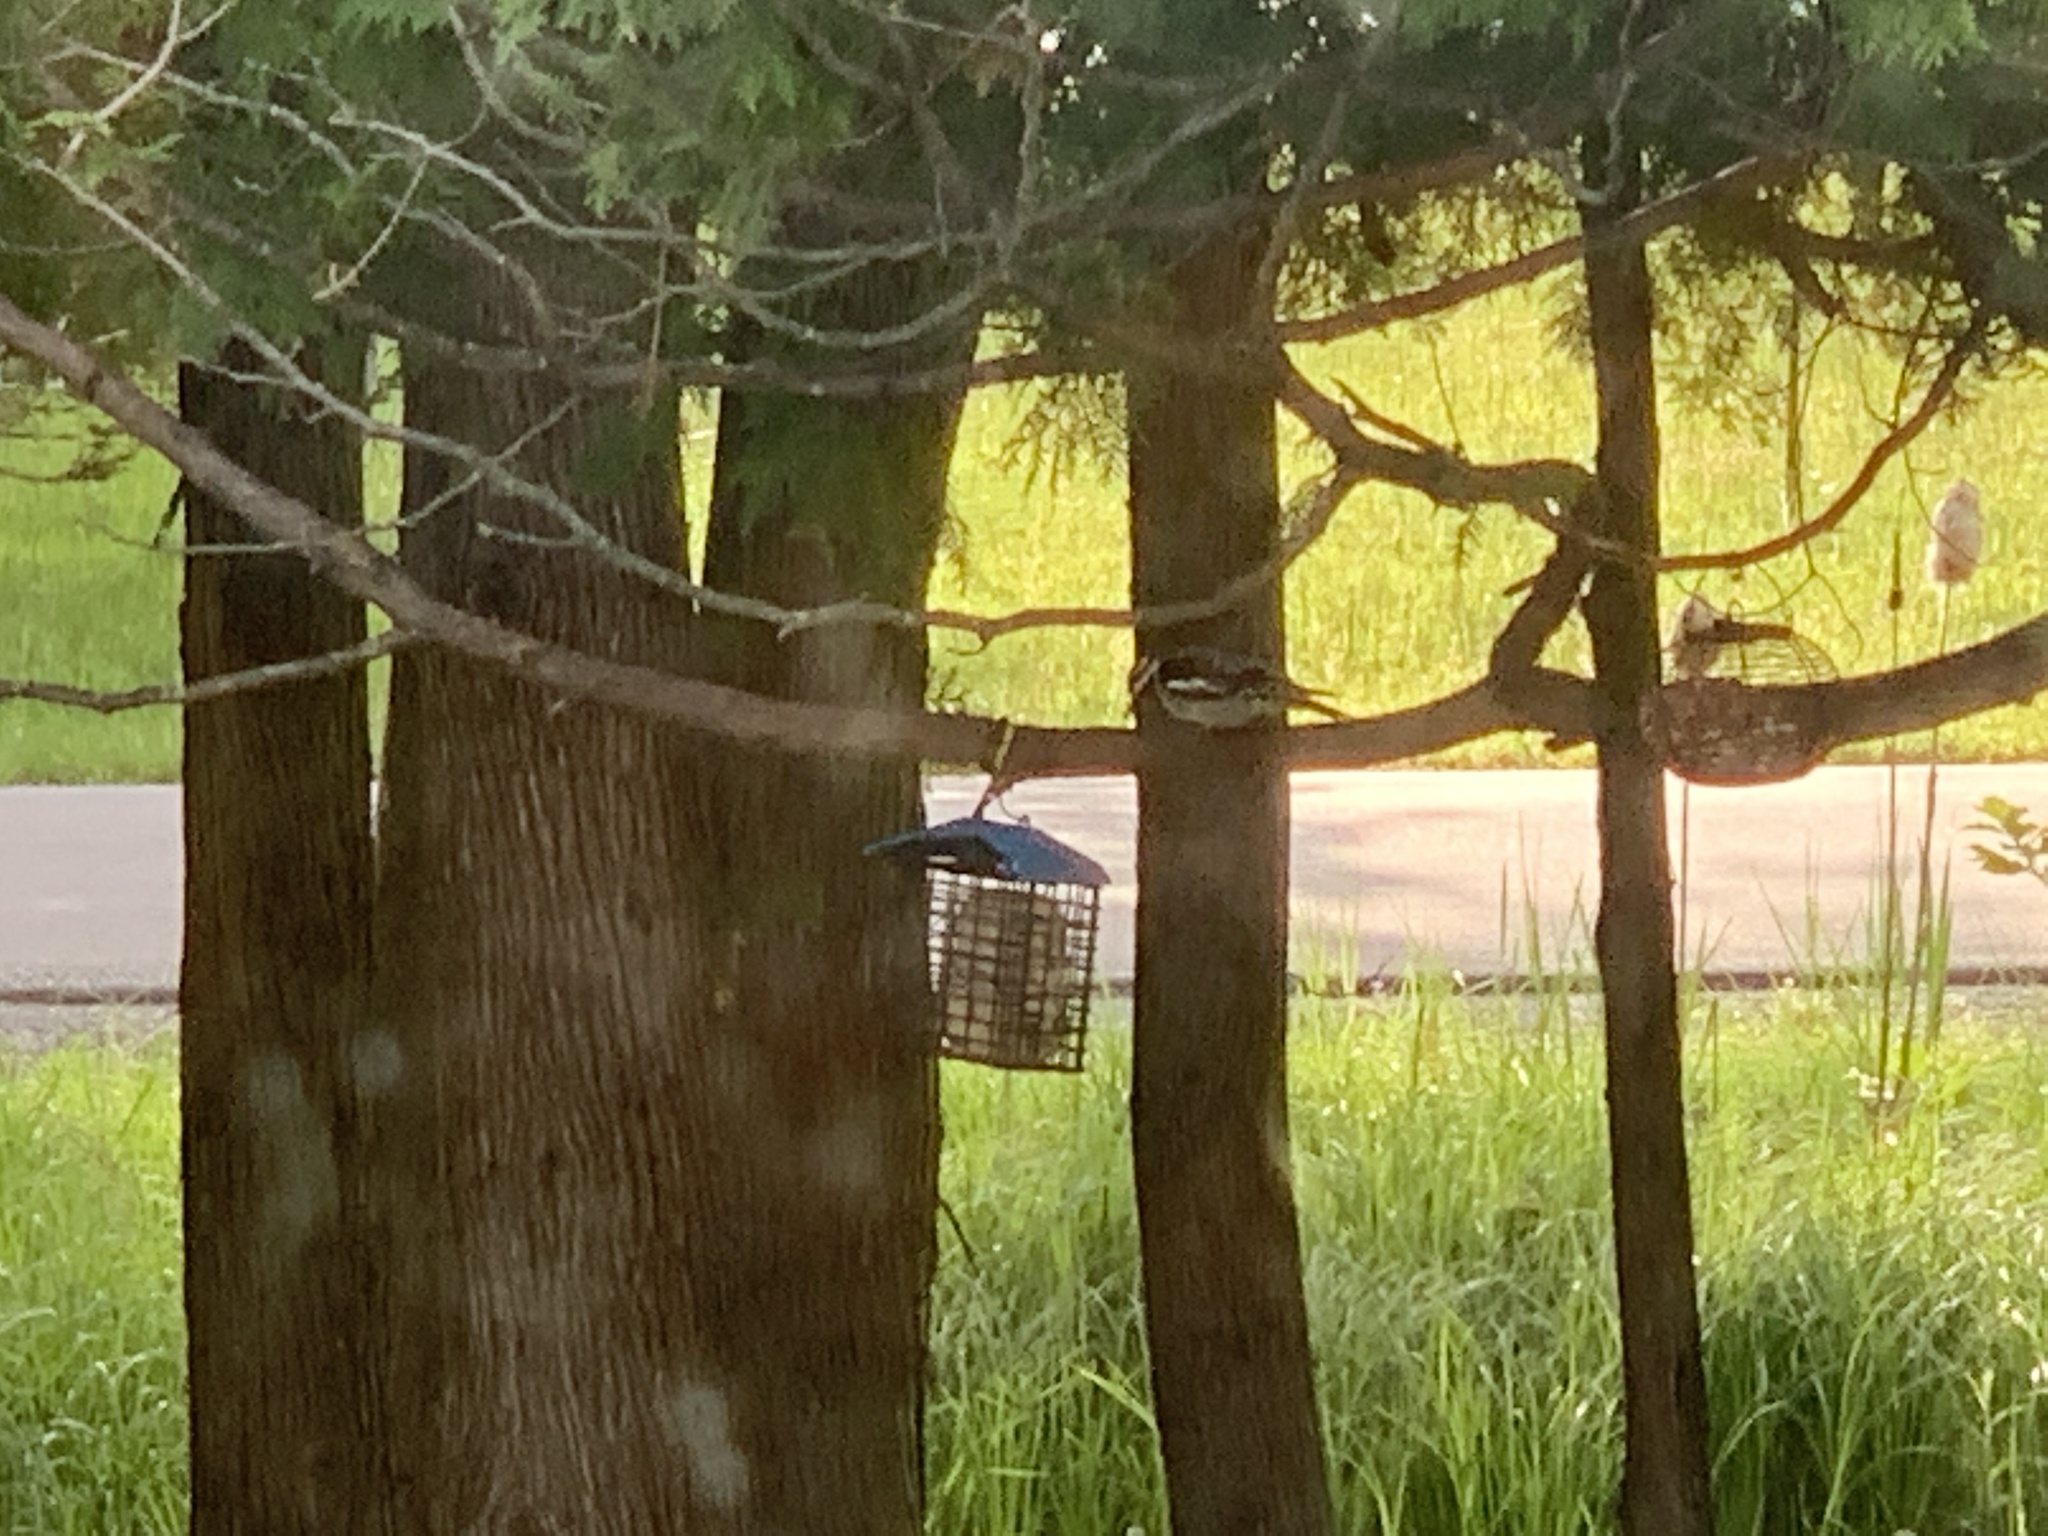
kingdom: Animalia
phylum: Chordata
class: Aves
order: Piciformes
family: Picidae
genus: Sphyrapicus
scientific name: Sphyrapicus varius
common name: Yellow-bellied sapsucker
